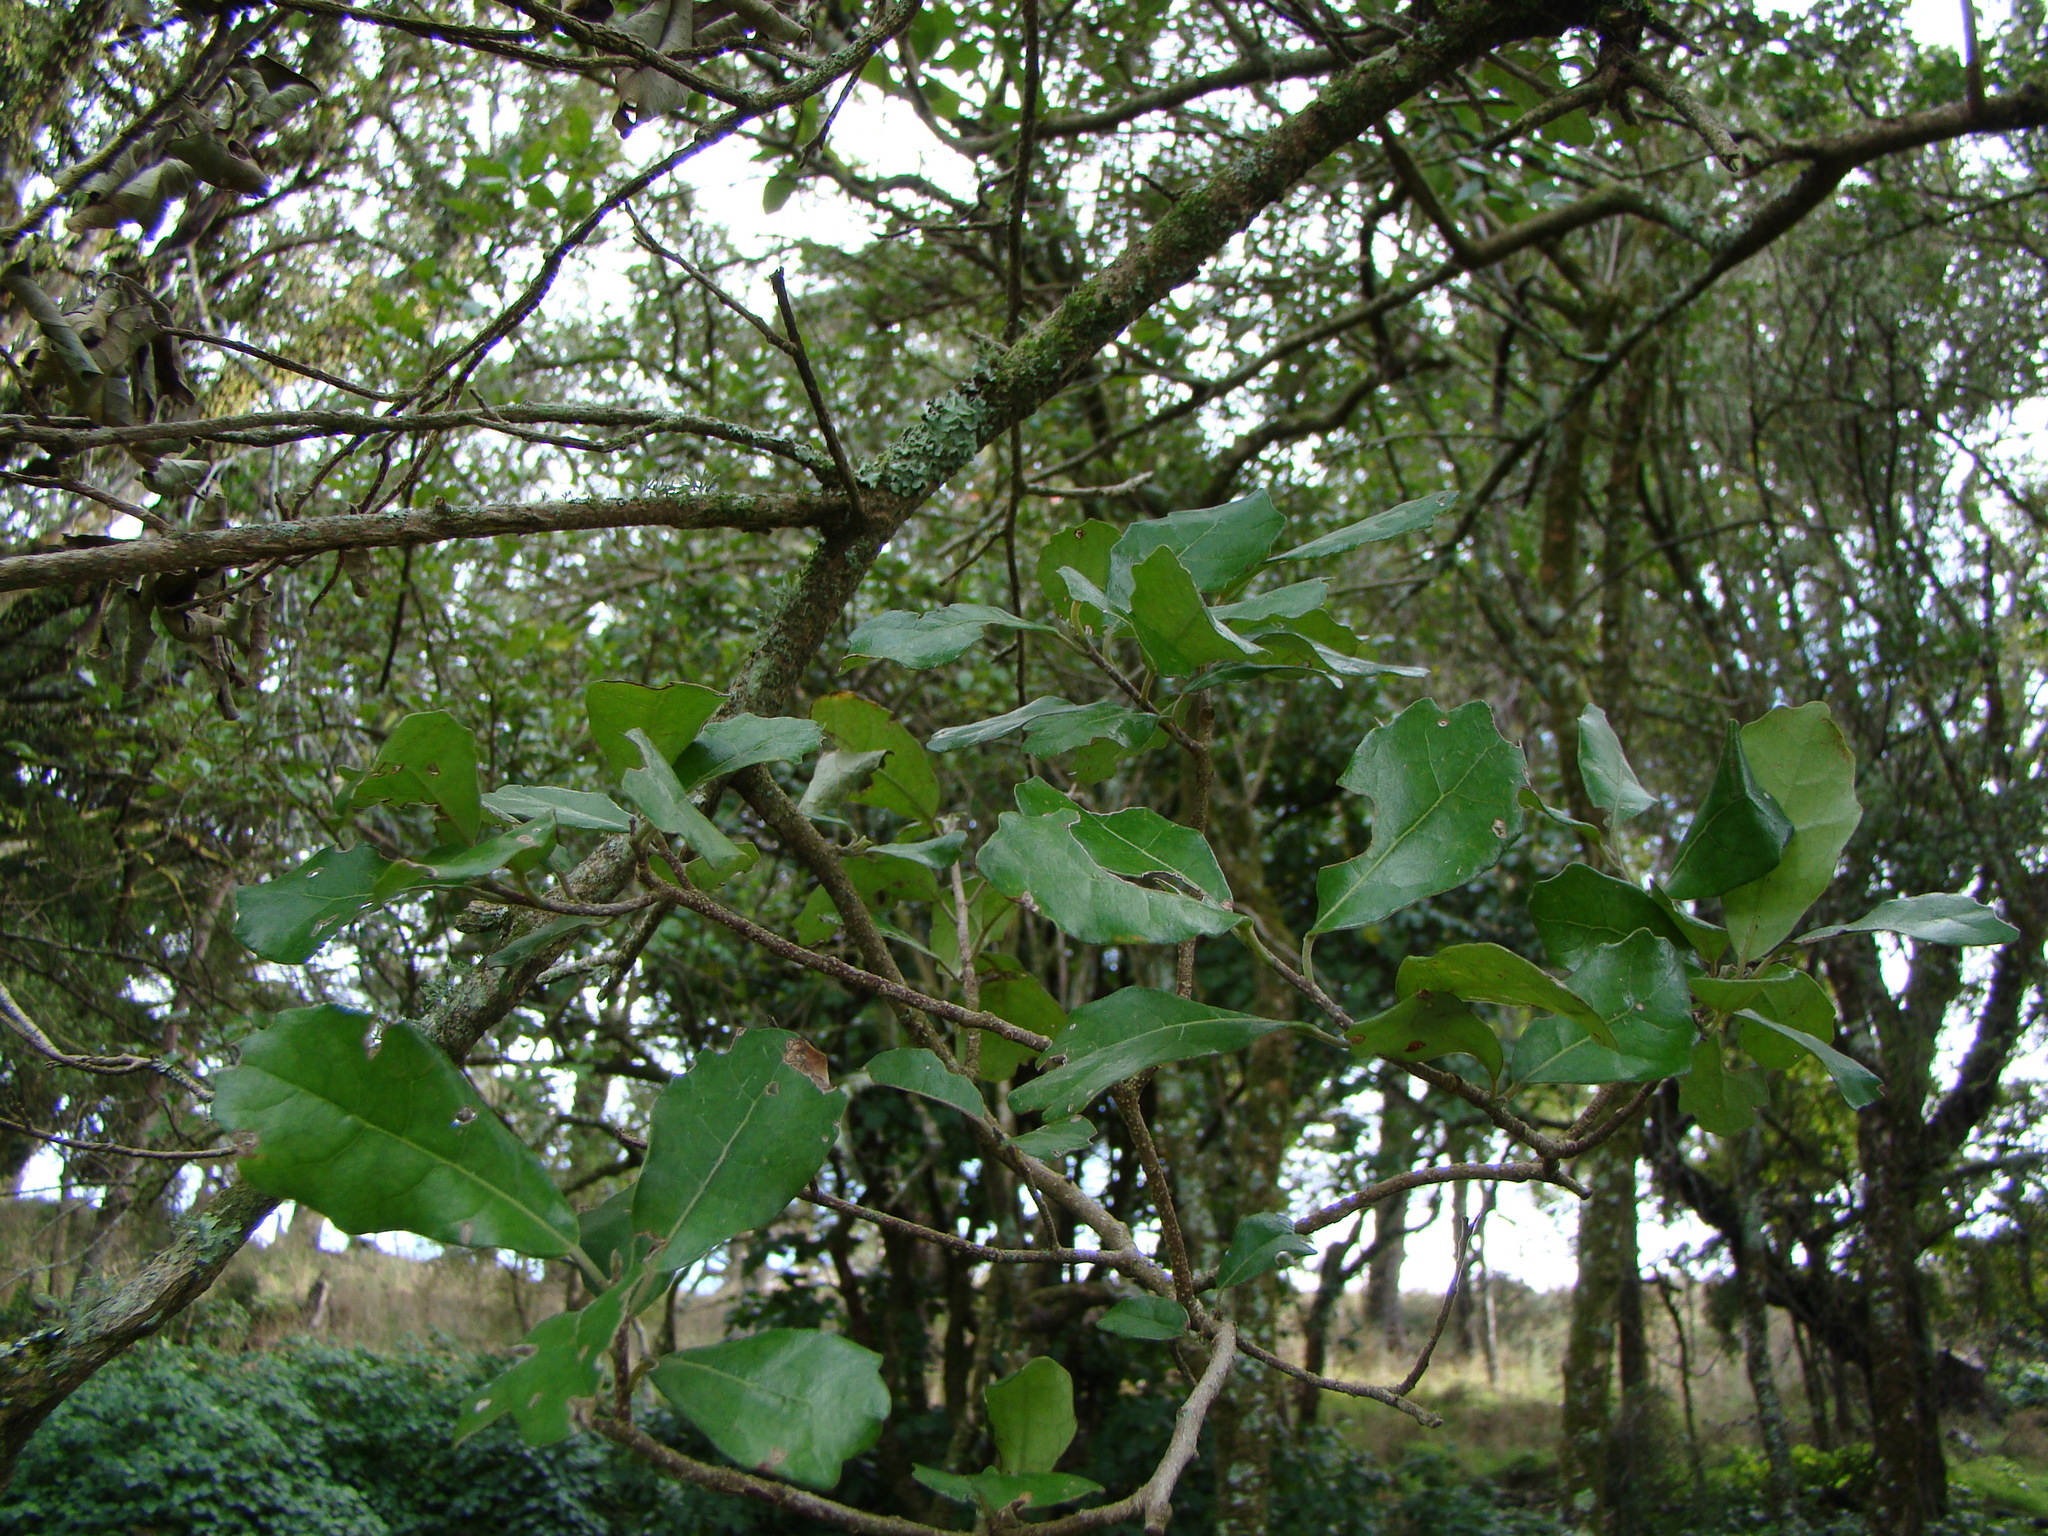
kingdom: Plantae
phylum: Tracheophyta
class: Magnoliopsida
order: Apiales
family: Pennantiaceae
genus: Pennantia
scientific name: Pennantia corymbosa
